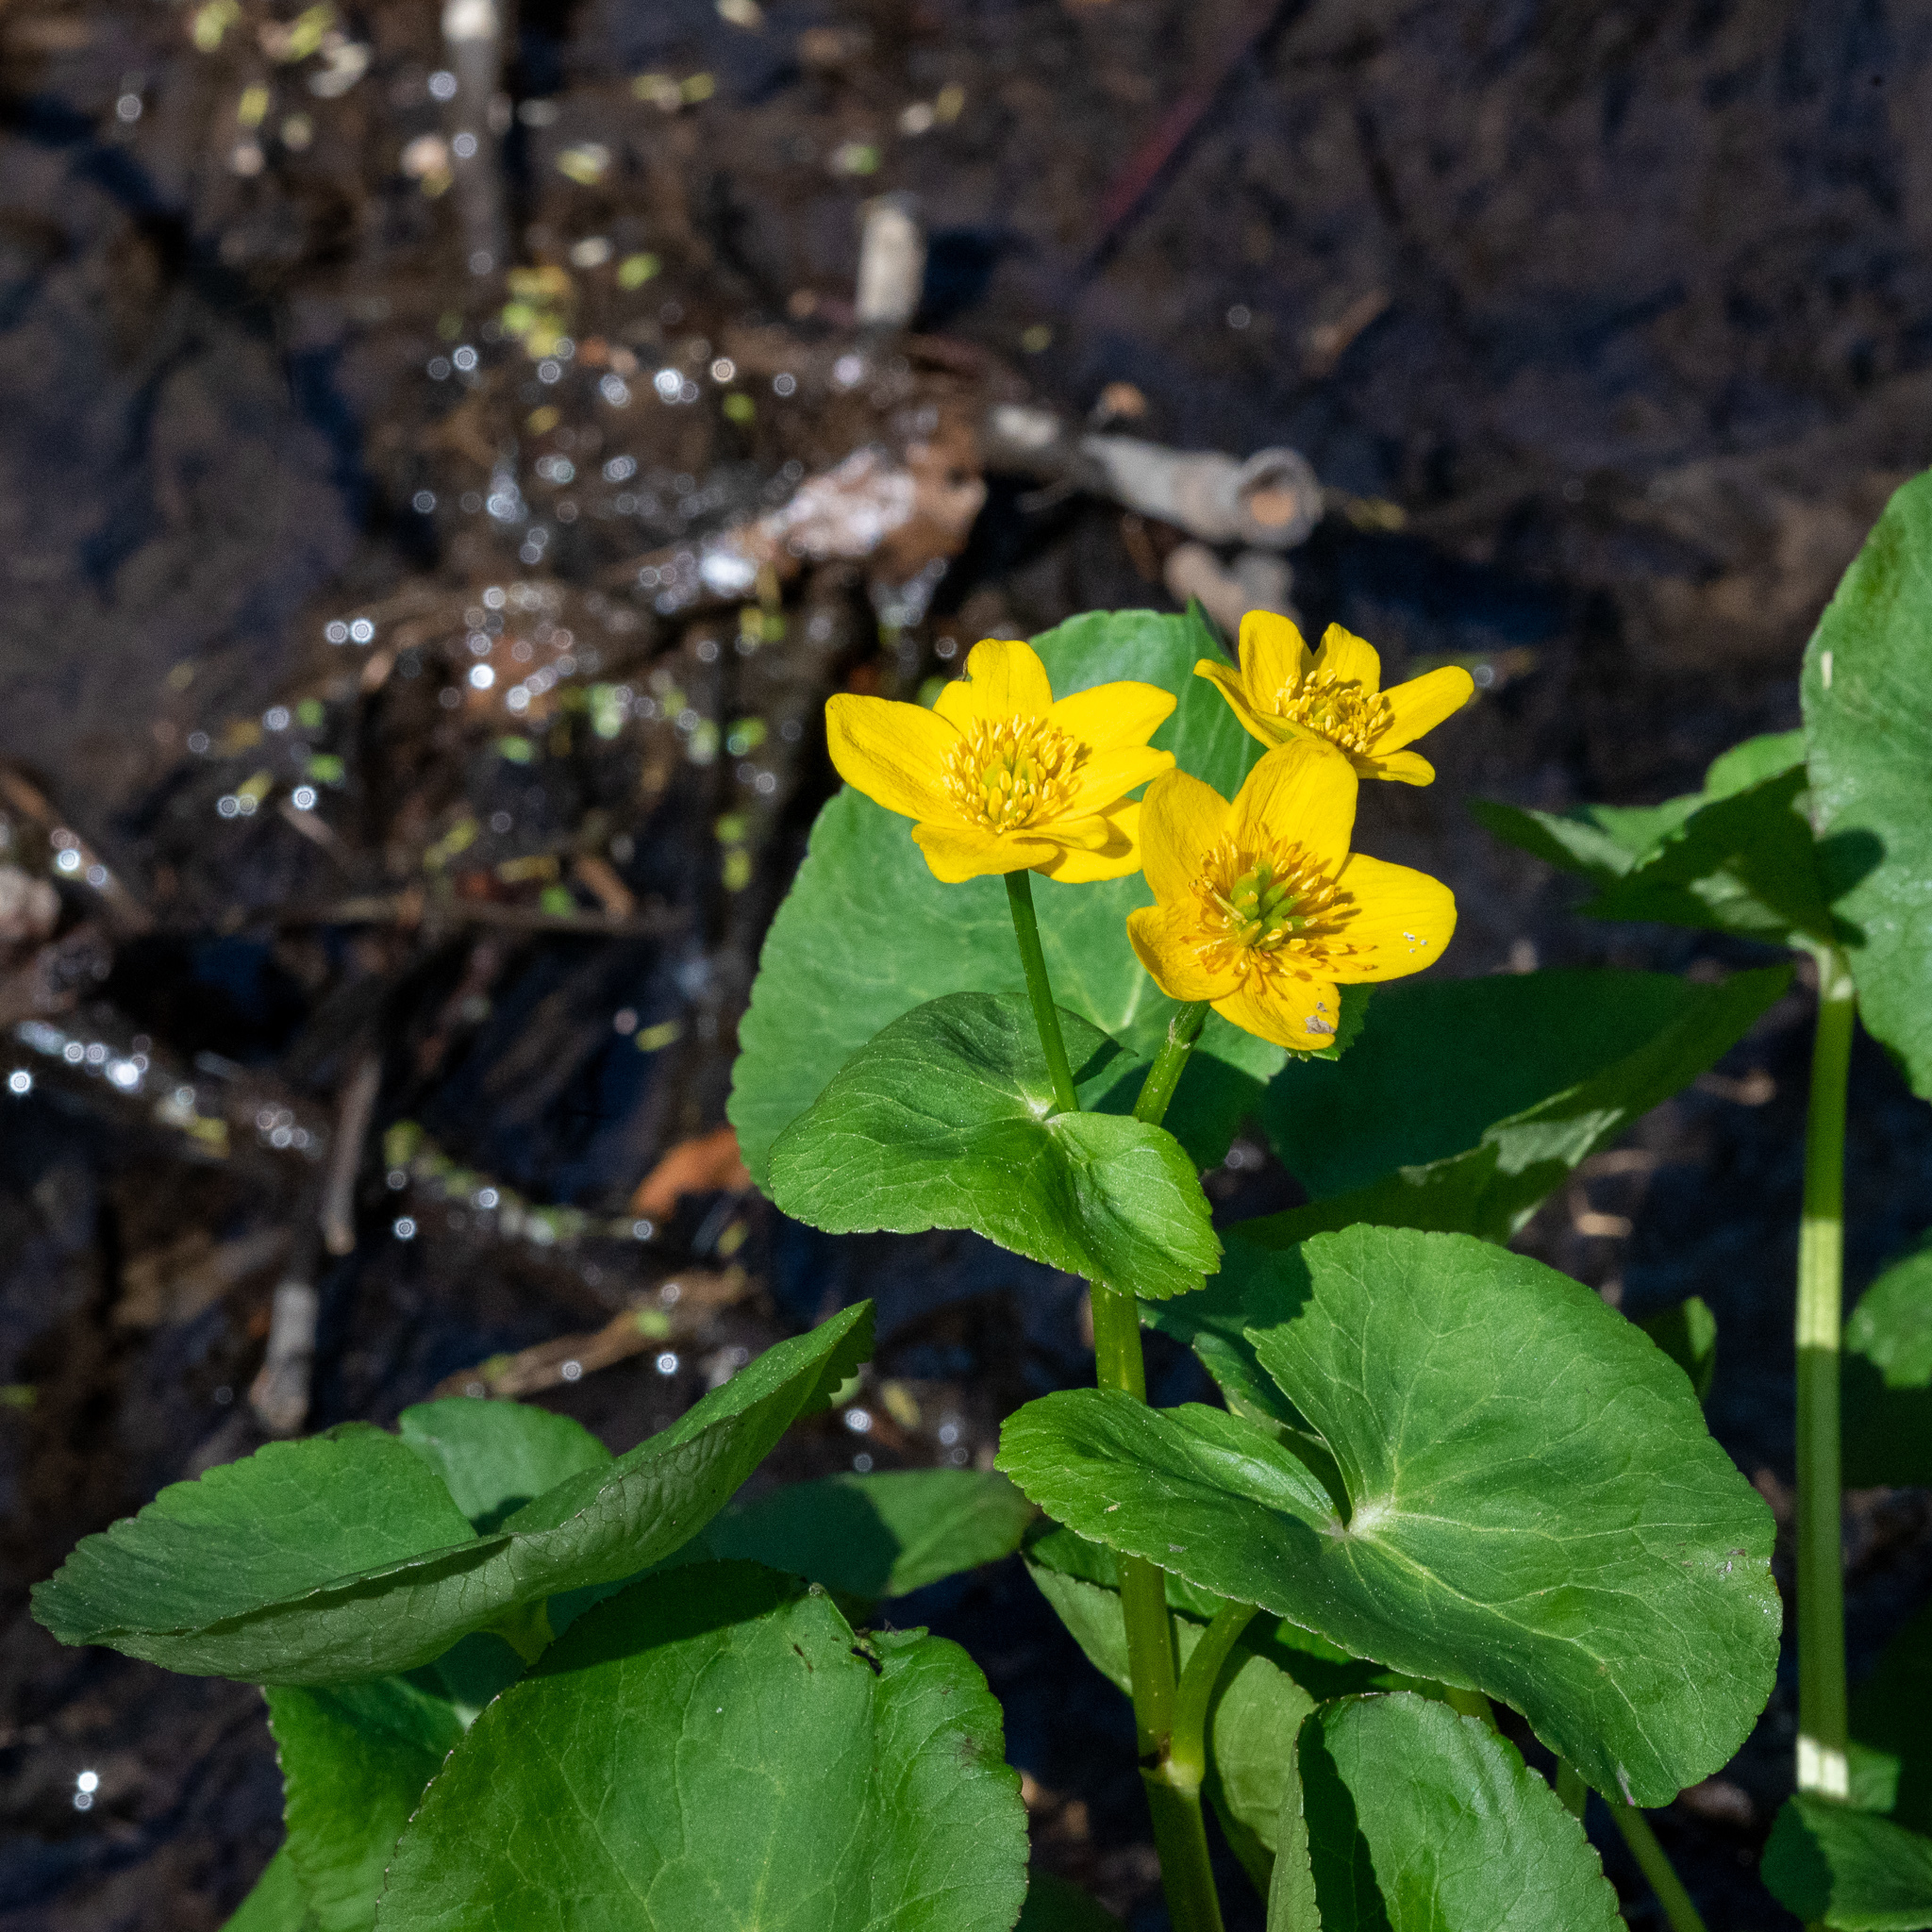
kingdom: Plantae
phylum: Tracheophyta
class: Magnoliopsida
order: Ranunculales
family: Ranunculaceae
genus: Caltha
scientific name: Caltha palustris
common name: Marsh marigold
